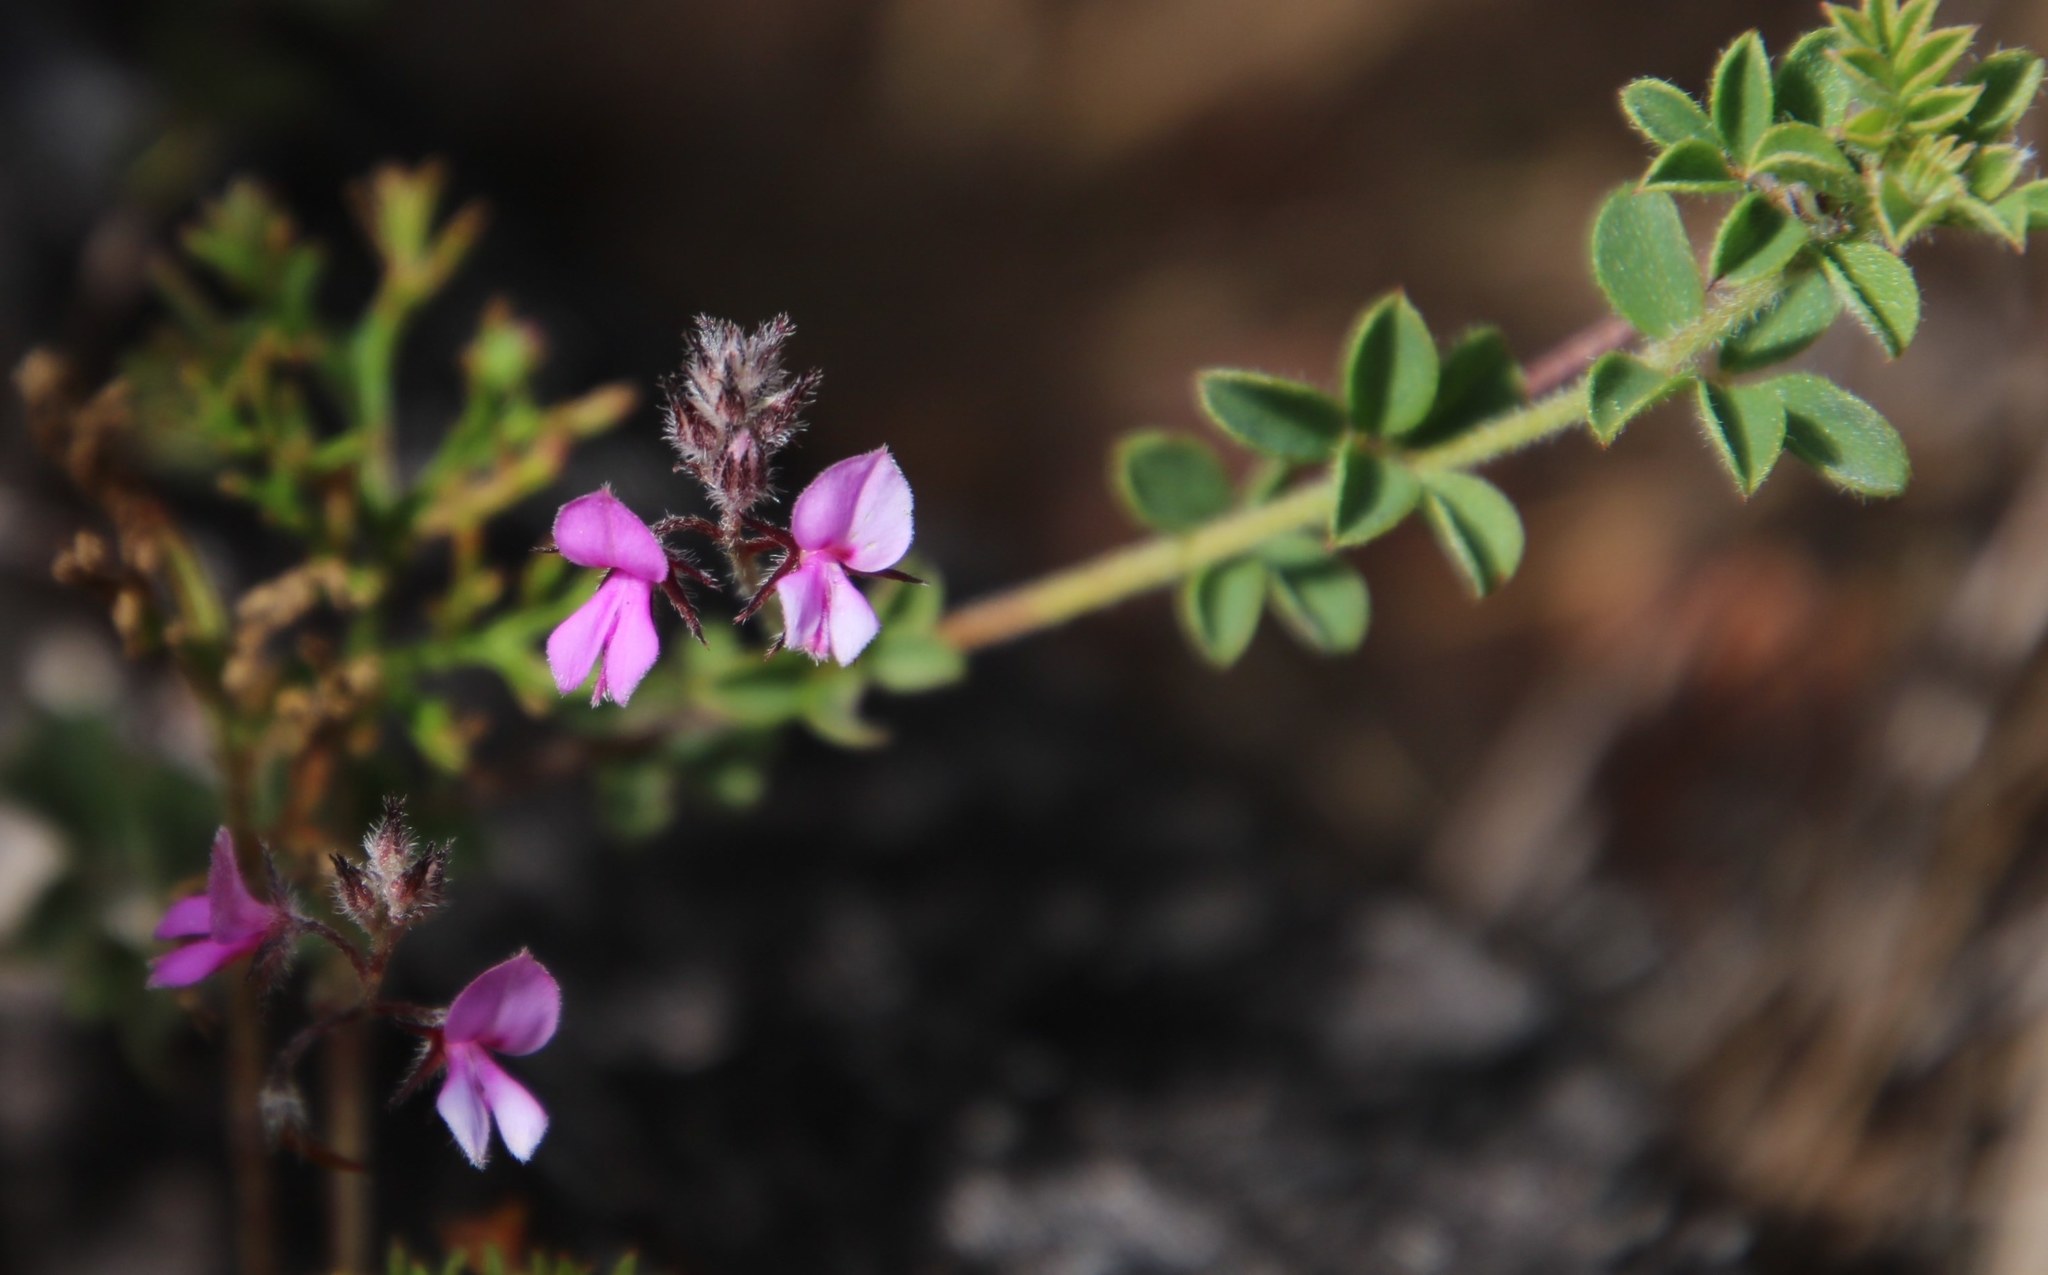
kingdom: Plantae
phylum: Tracheophyta
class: Magnoliopsida
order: Fabales
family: Fabaceae
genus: Indigofera
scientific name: Indigofera alopecuroides
